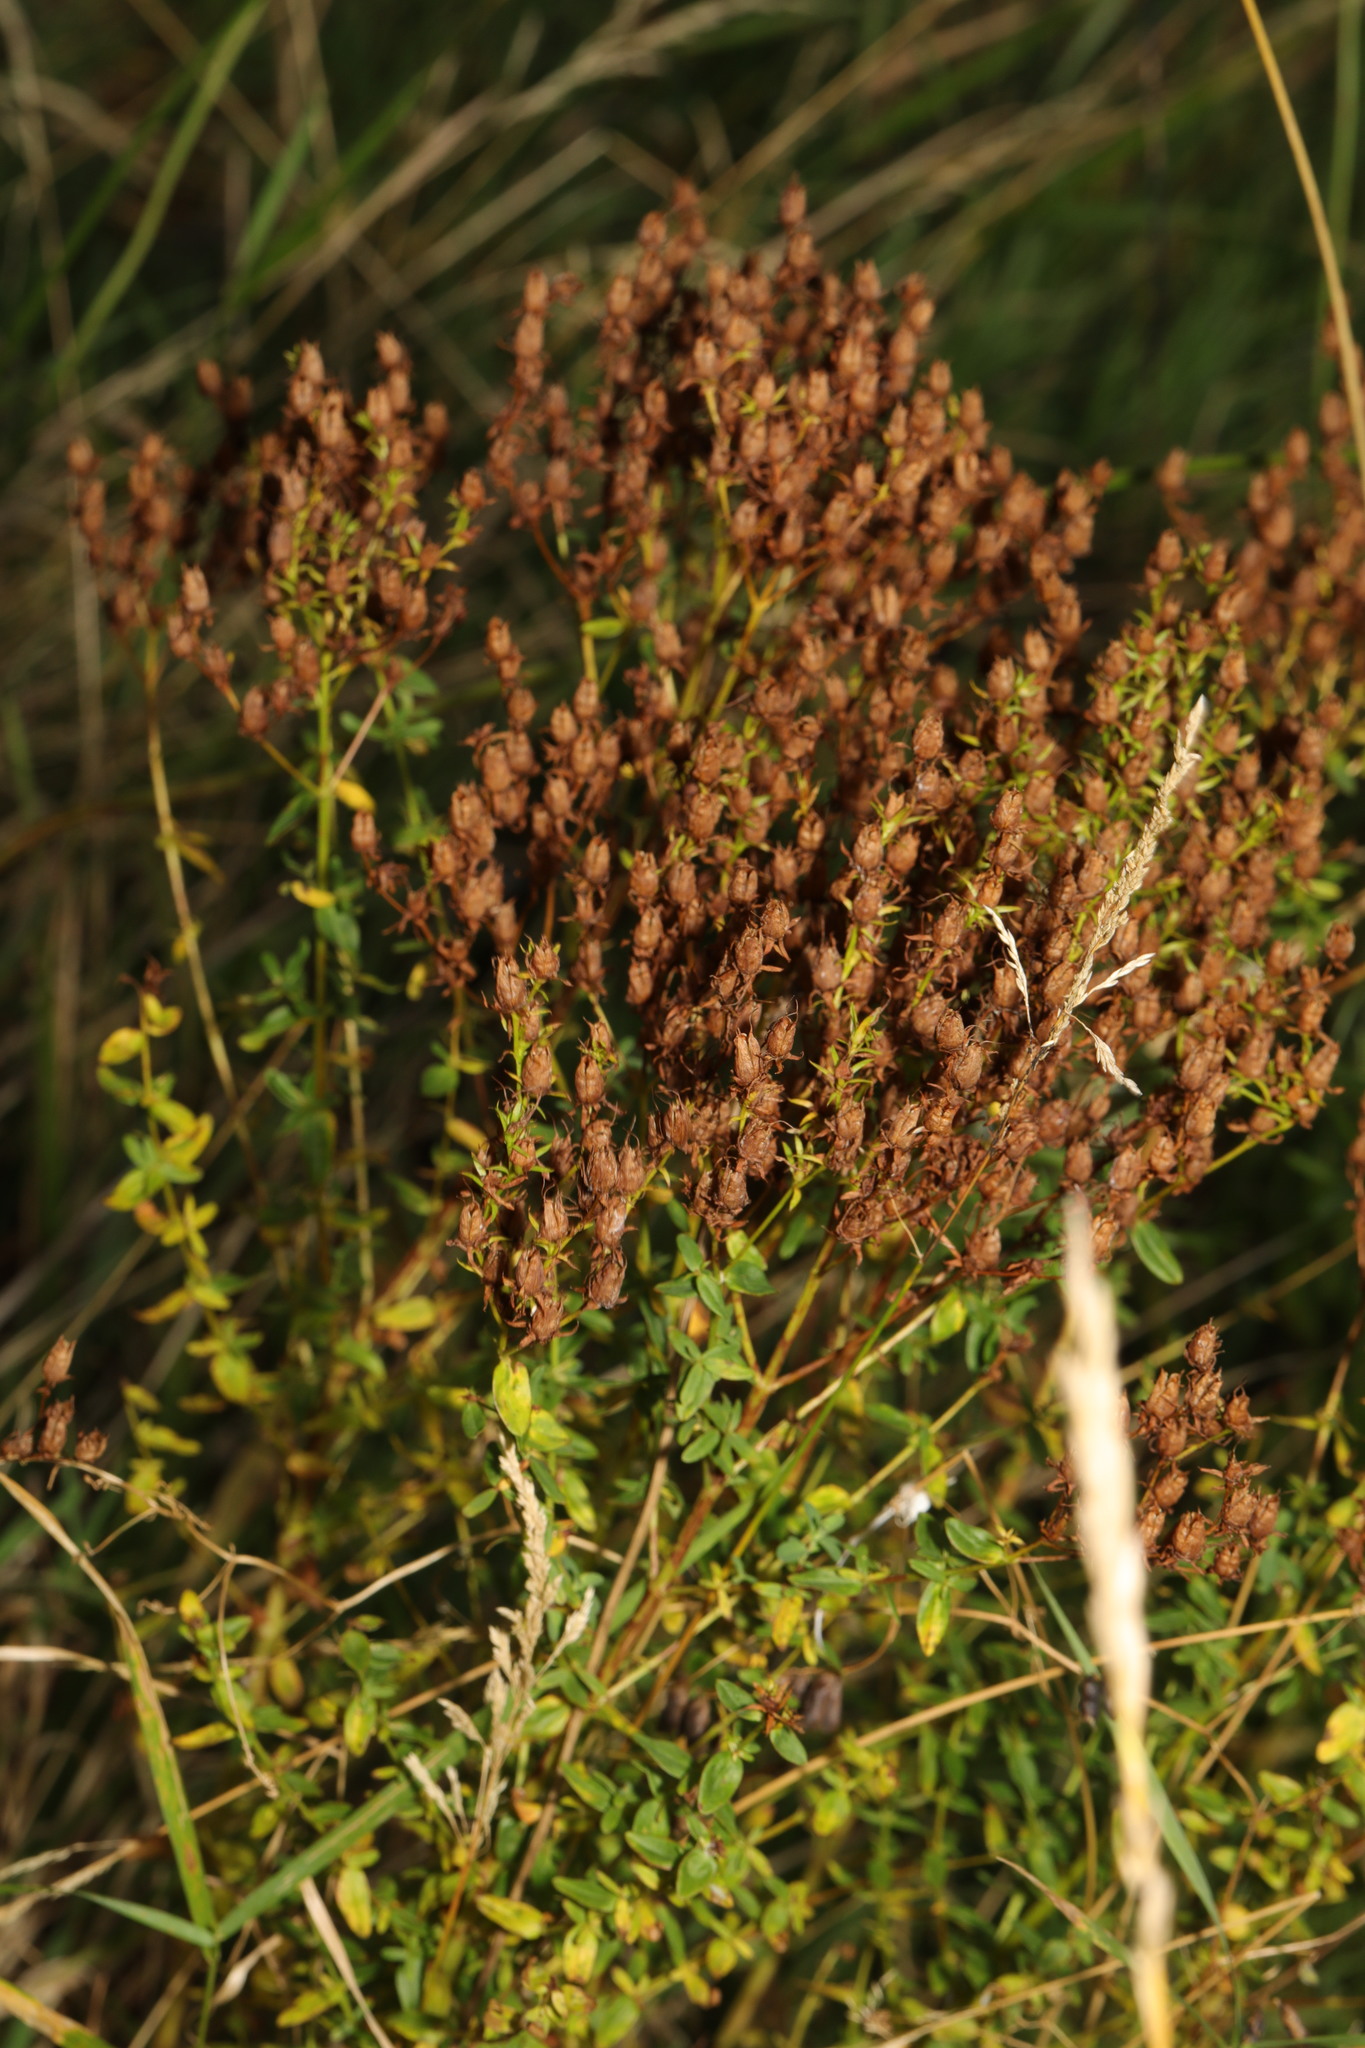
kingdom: Plantae
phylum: Tracheophyta
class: Magnoliopsida
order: Malpighiales
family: Hypericaceae
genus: Hypericum
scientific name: Hypericum perforatum
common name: Common st. johnswort
